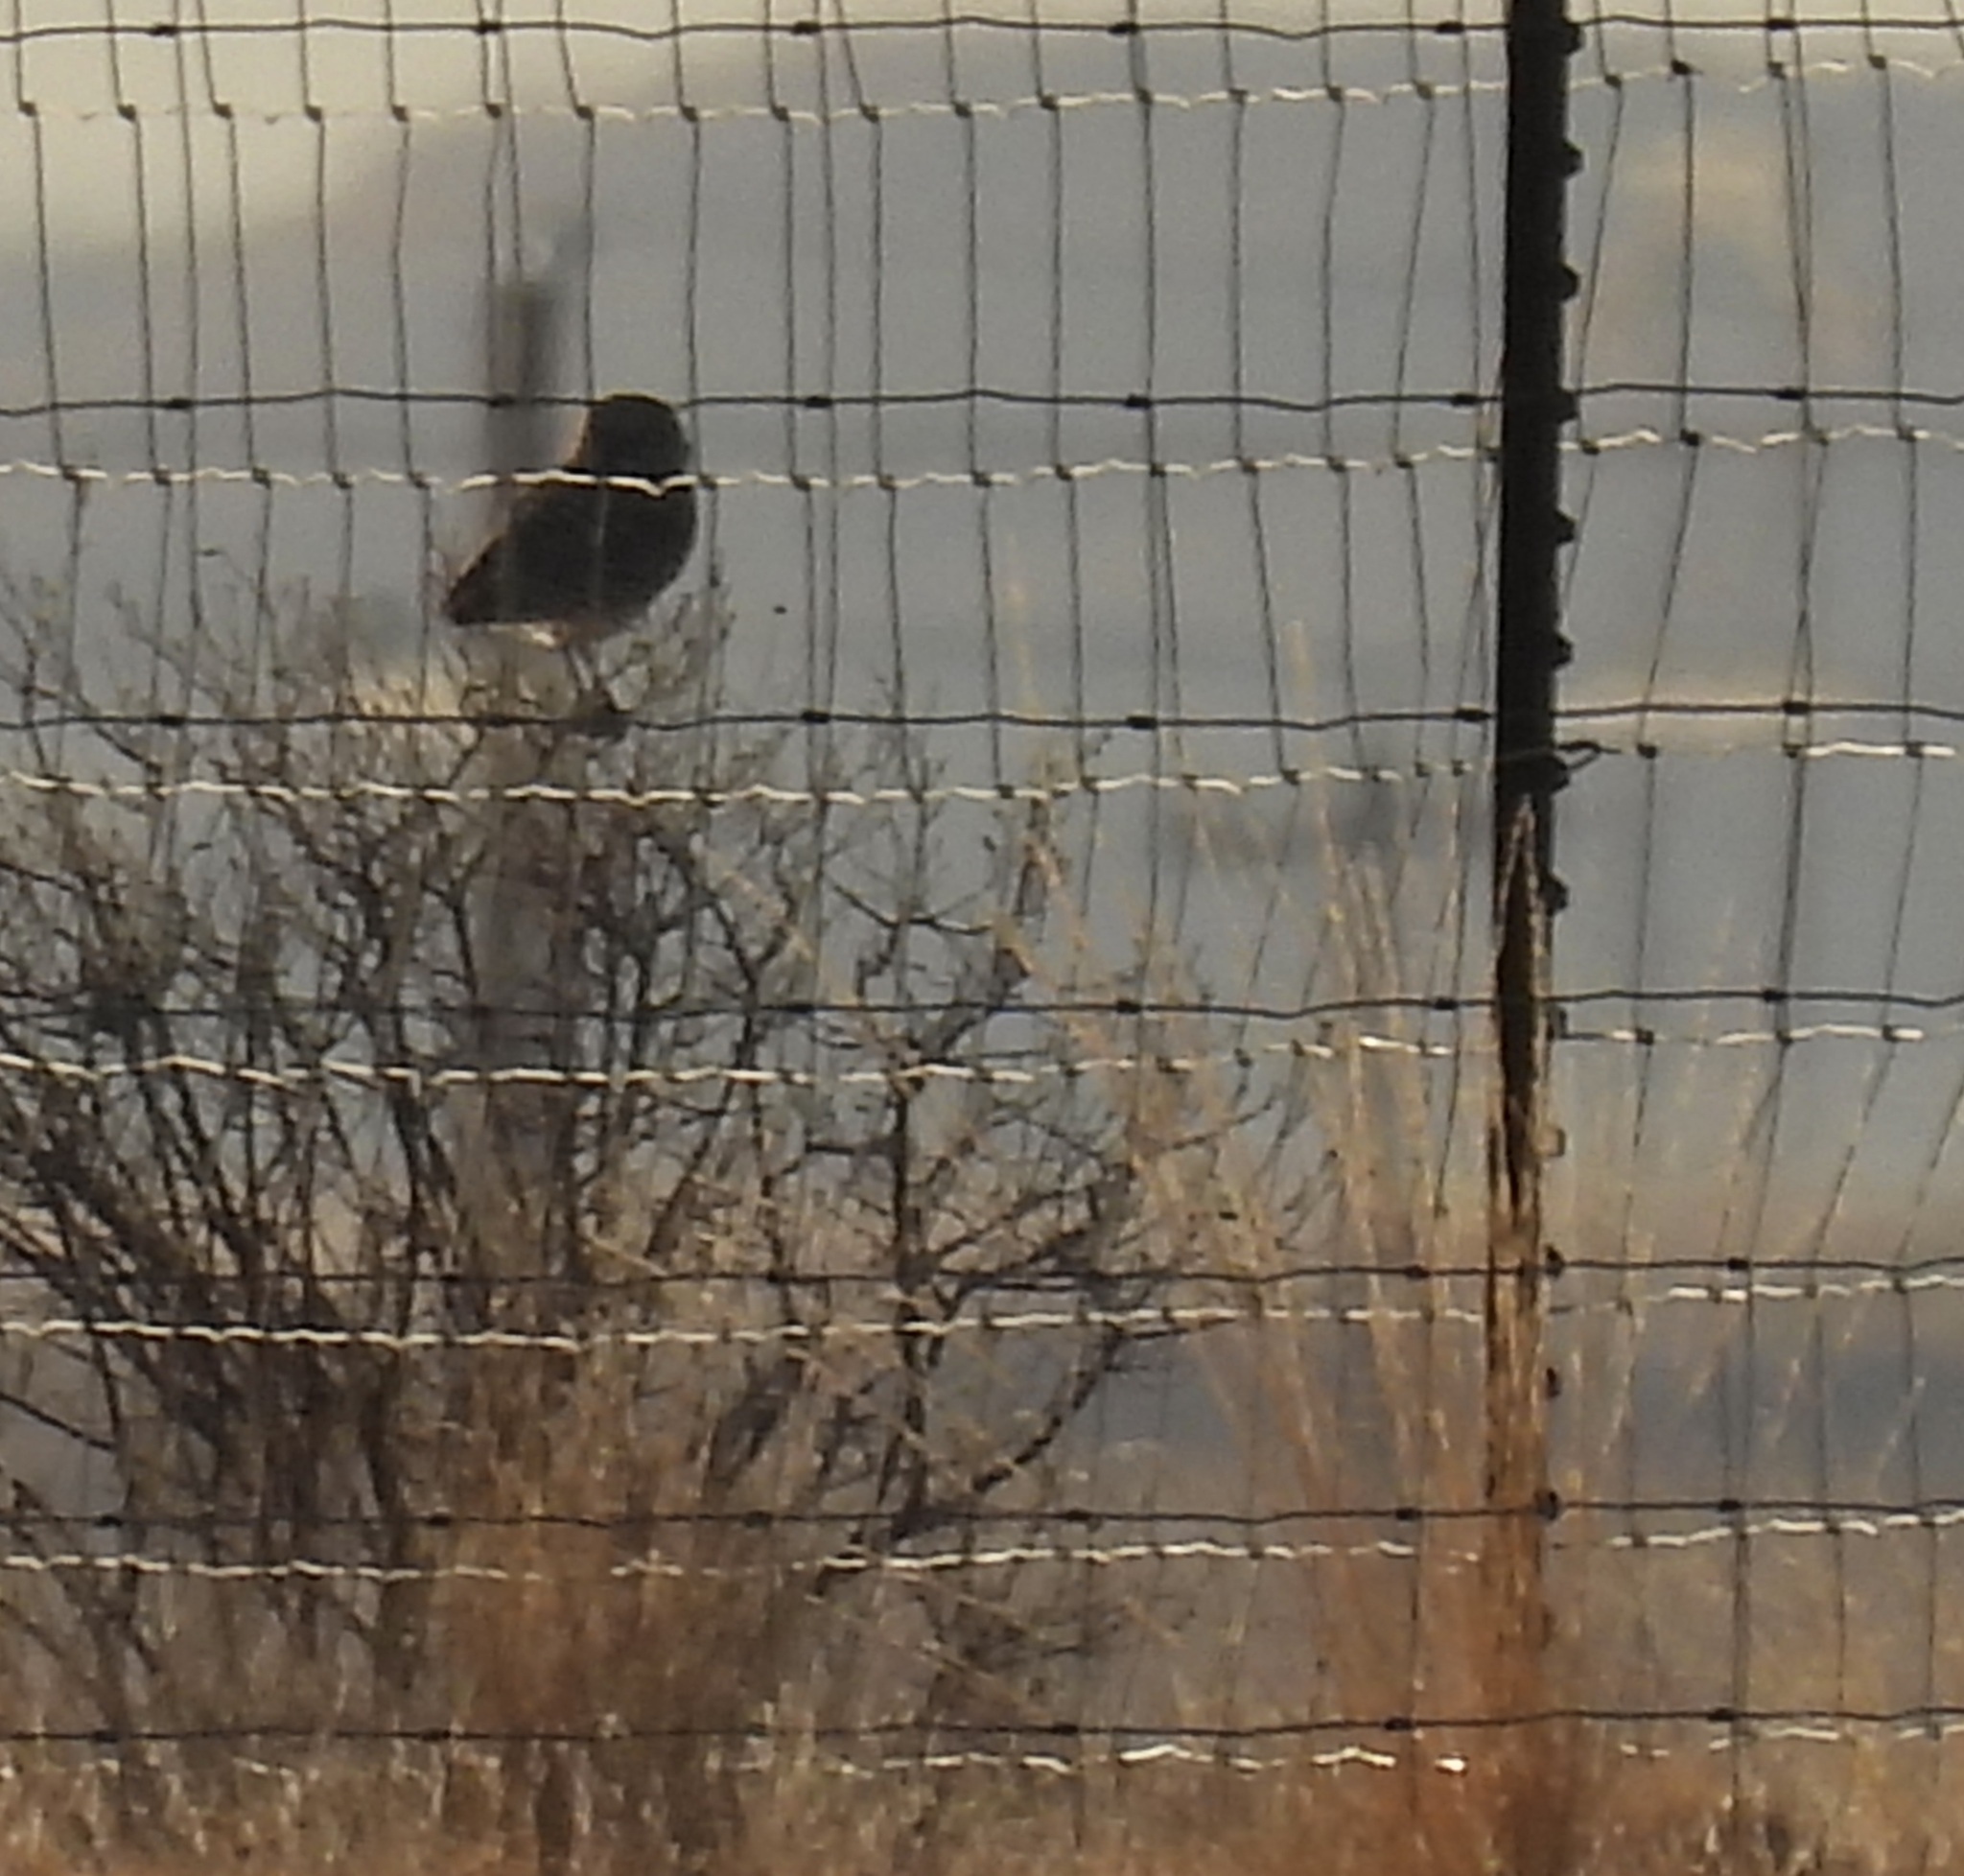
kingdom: Animalia
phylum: Chordata
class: Aves
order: Strigiformes
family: Strigidae
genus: Athene
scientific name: Athene cunicularia
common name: Burrowing owl
